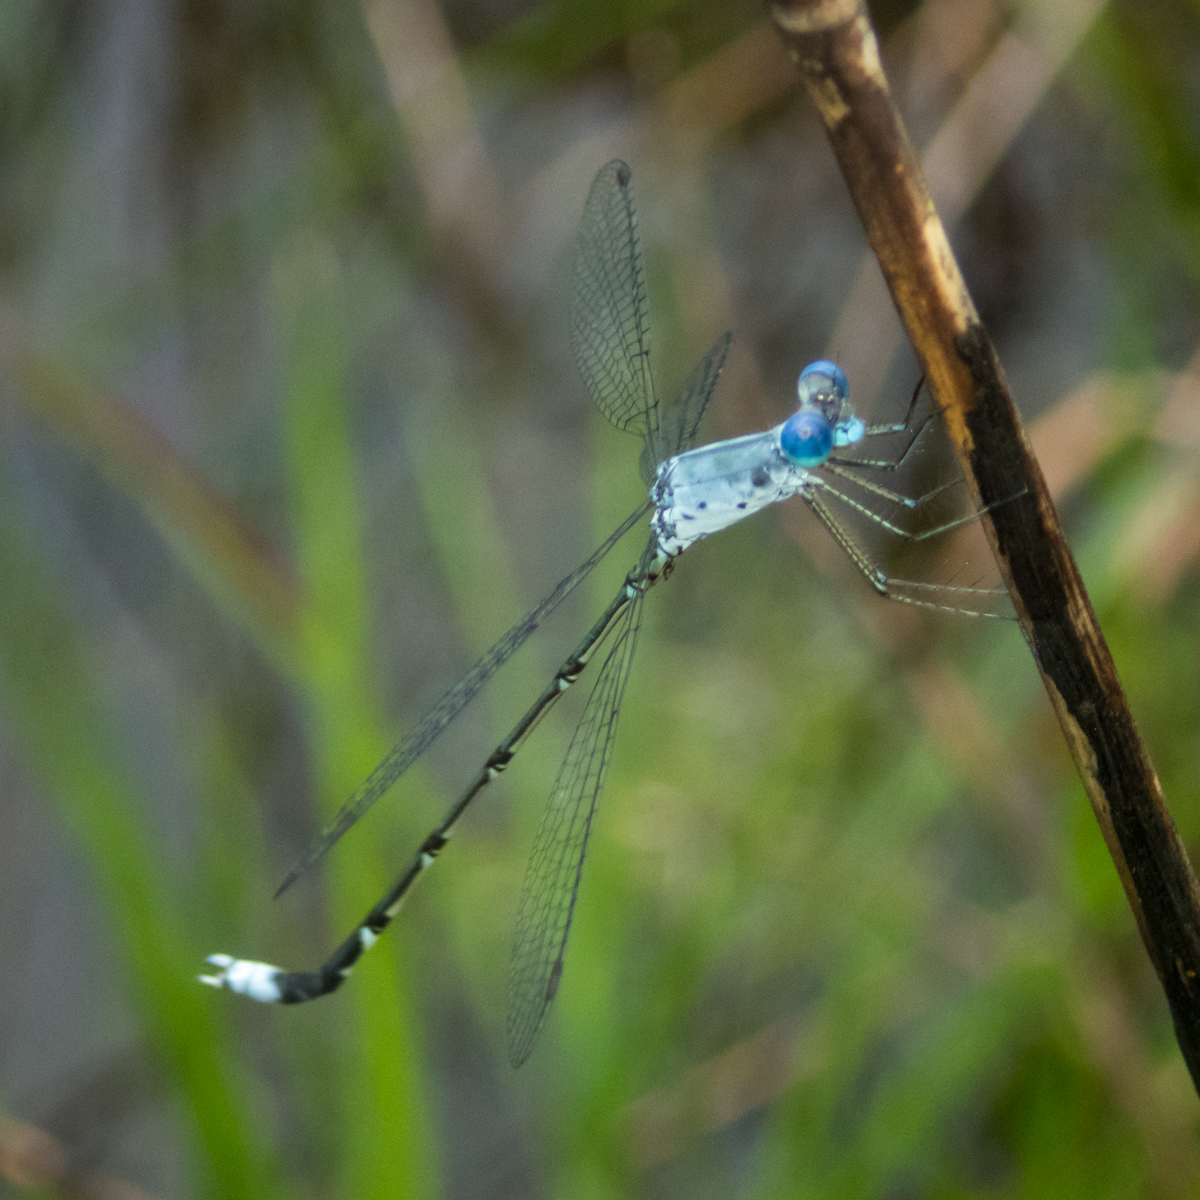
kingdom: Animalia
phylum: Arthropoda
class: Insecta
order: Odonata
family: Lestidae
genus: Lestes
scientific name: Lestes praemorsus
